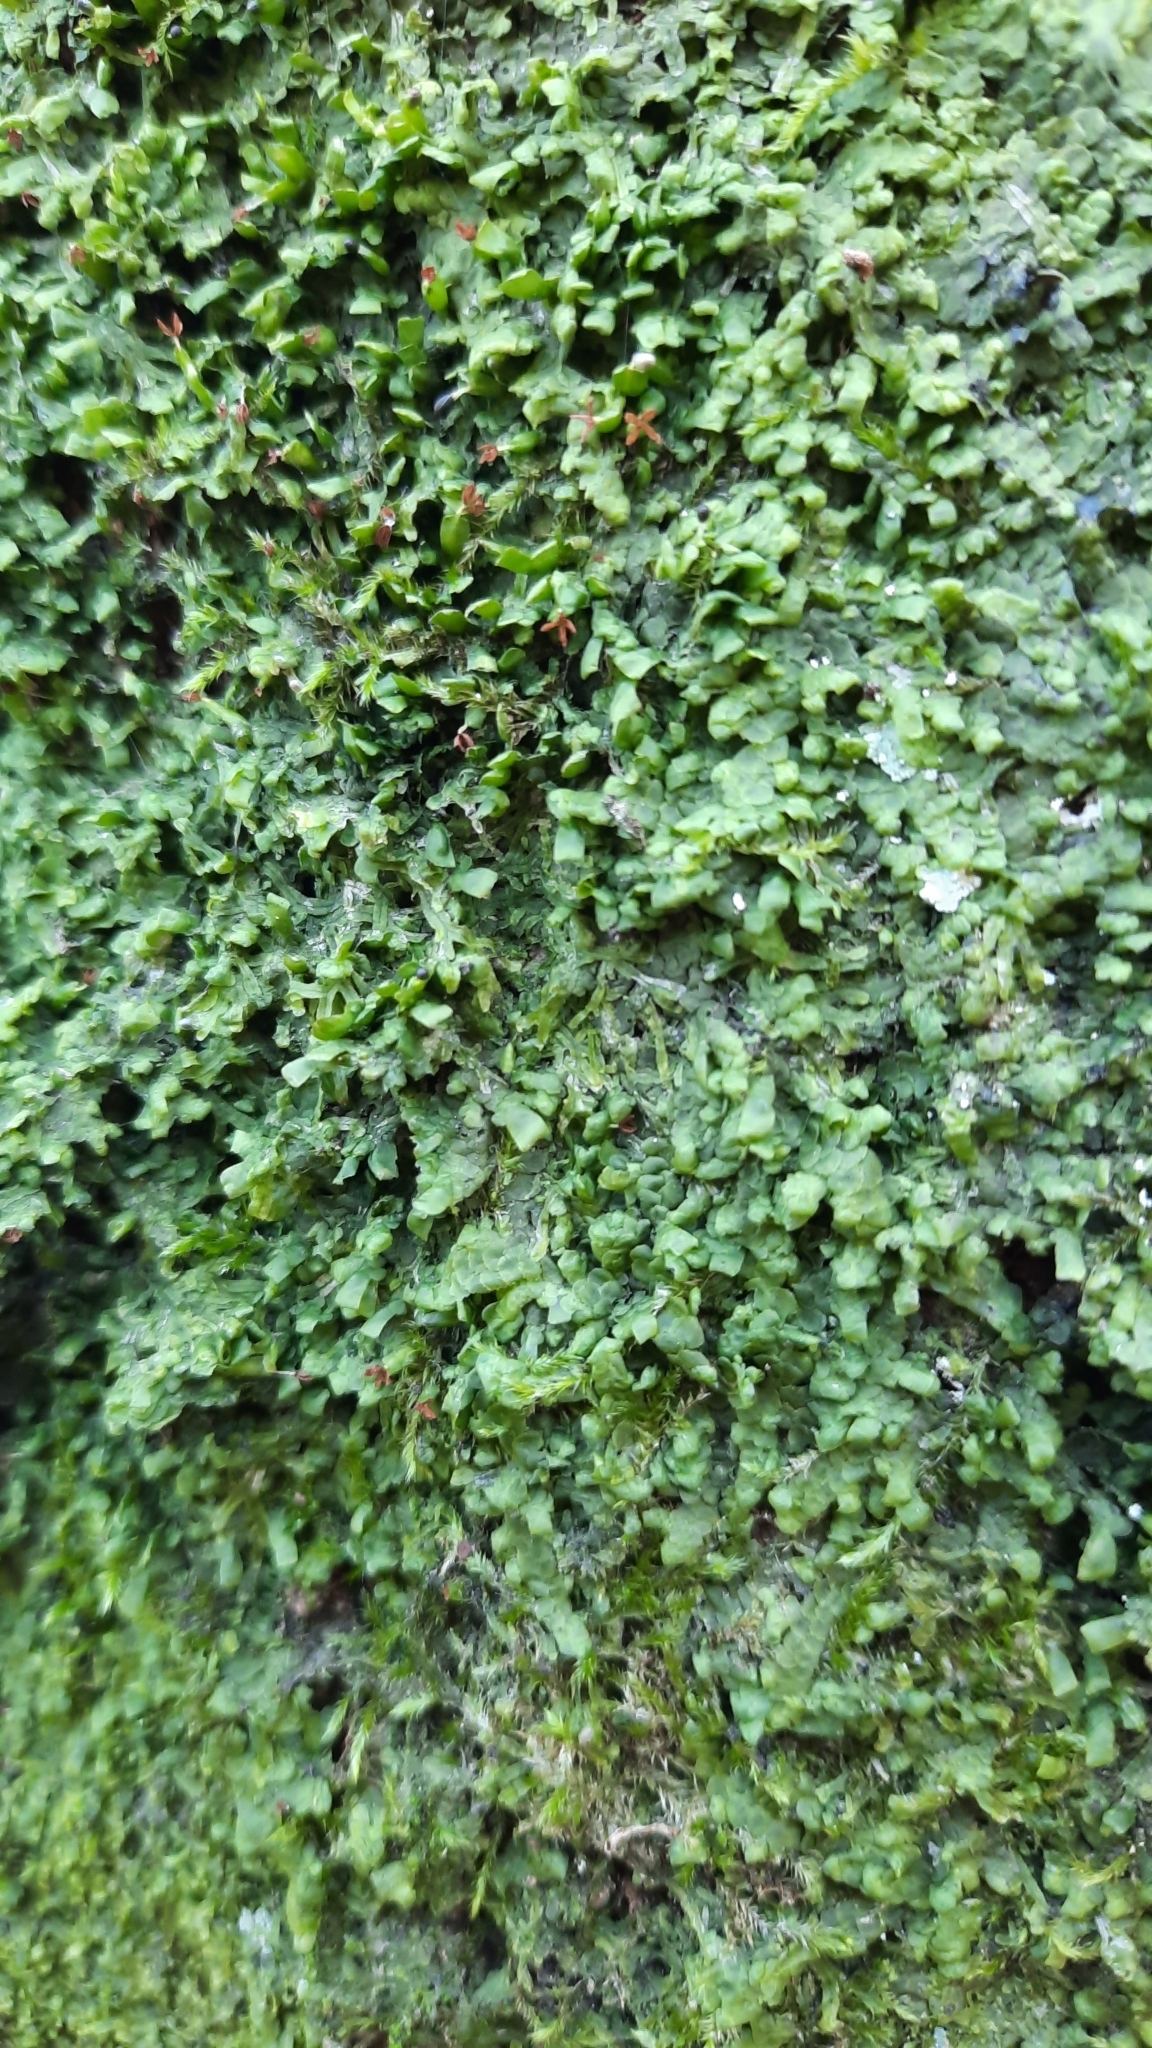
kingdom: Plantae
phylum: Marchantiophyta
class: Jungermanniopsida
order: Porellales
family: Radulaceae
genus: Radula
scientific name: Radula complanata
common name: Flat-leaved scalewort
